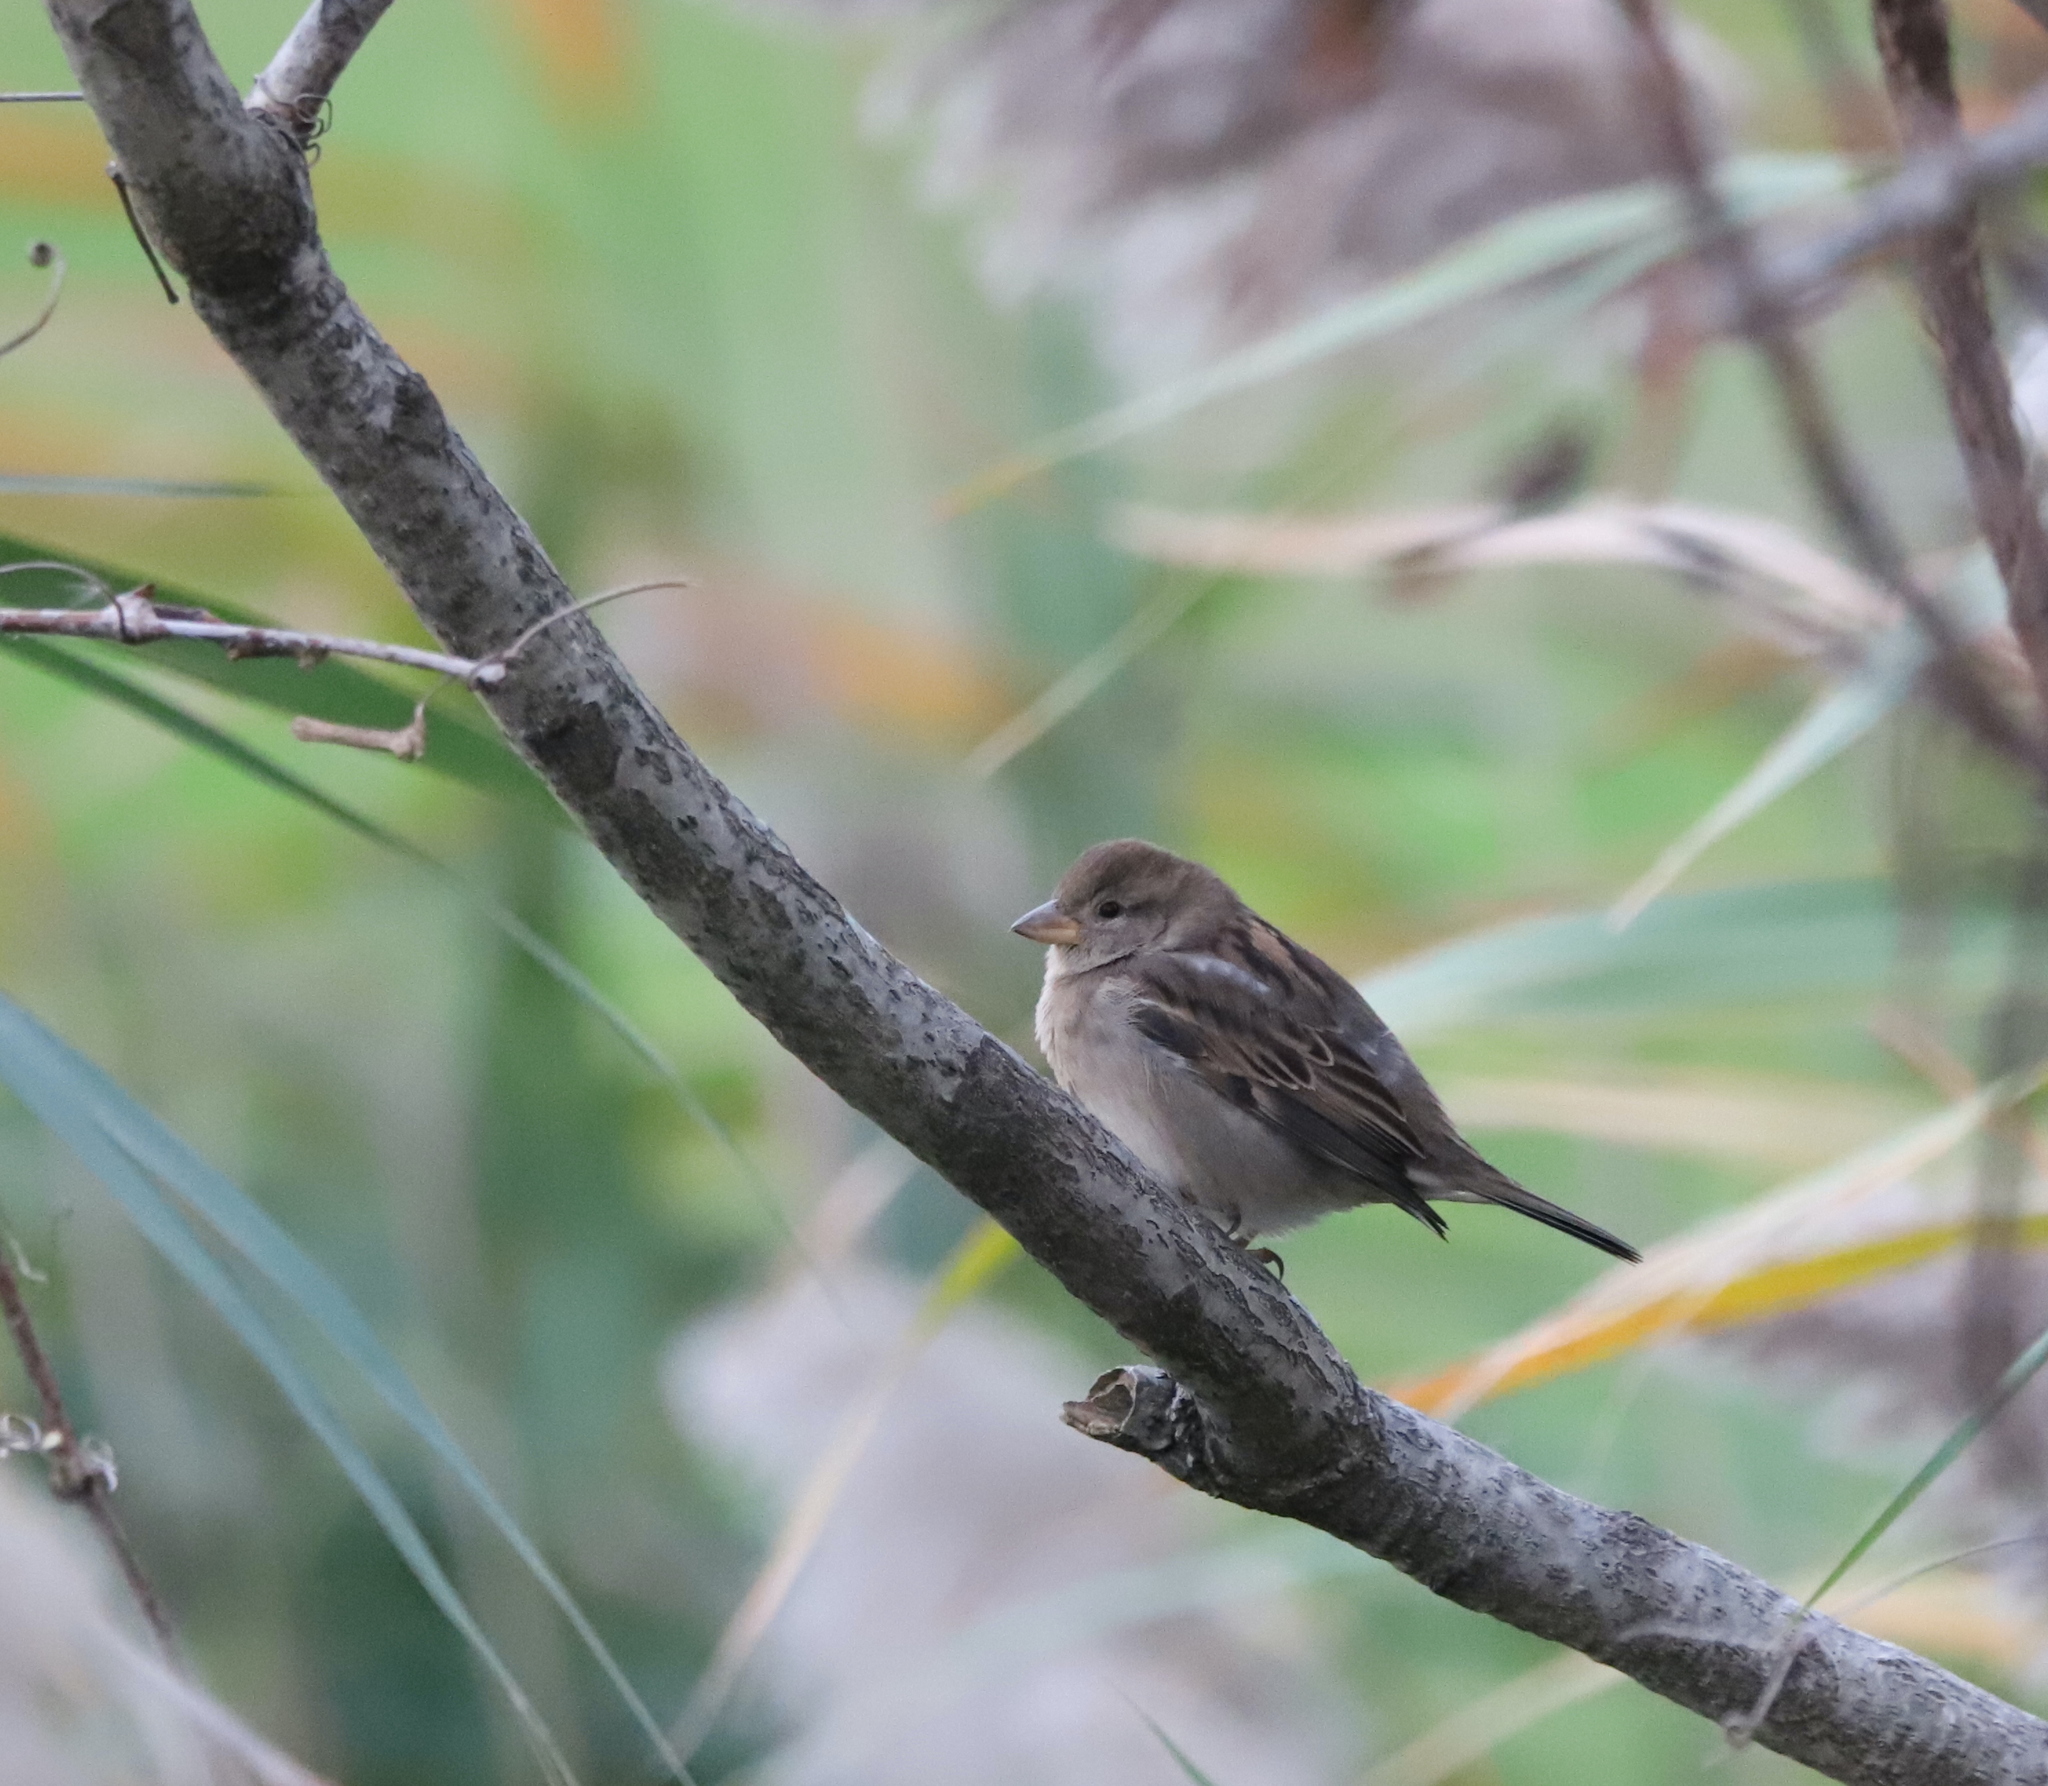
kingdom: Animalia
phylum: Chordata
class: Aves
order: Passeriformes
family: Passeridae
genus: Passer
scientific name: Passer domesticus
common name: House sparrow
